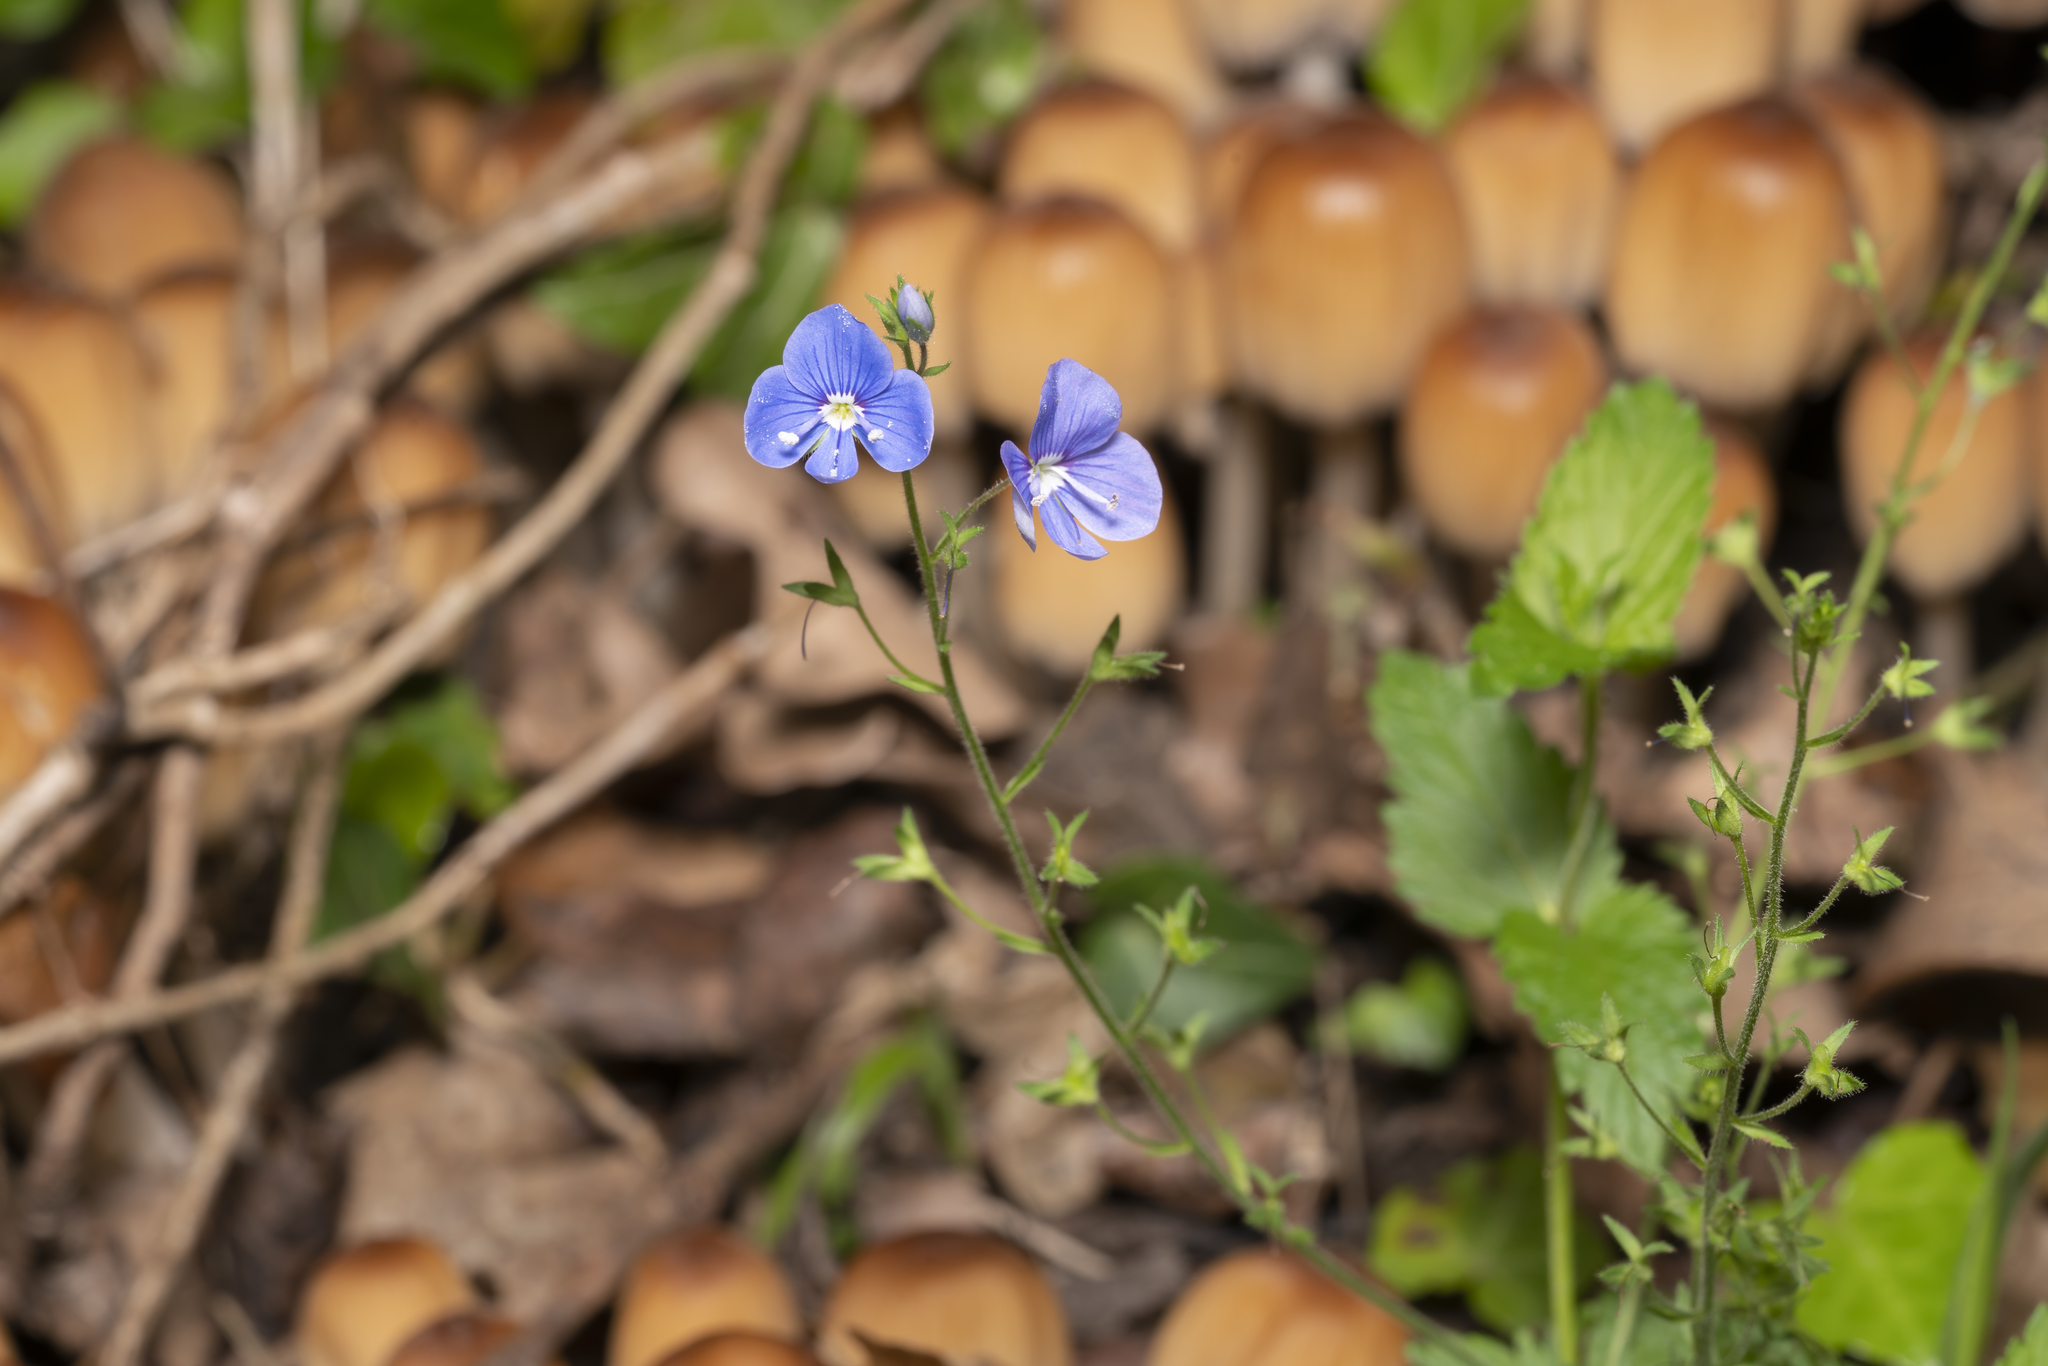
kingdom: Plantae
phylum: Tracheophyta
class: Magnoliopsida
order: Lamiales
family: Plantaginaceae
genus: Veronica
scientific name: Veronica chamaedrys
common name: Germander speedwell
